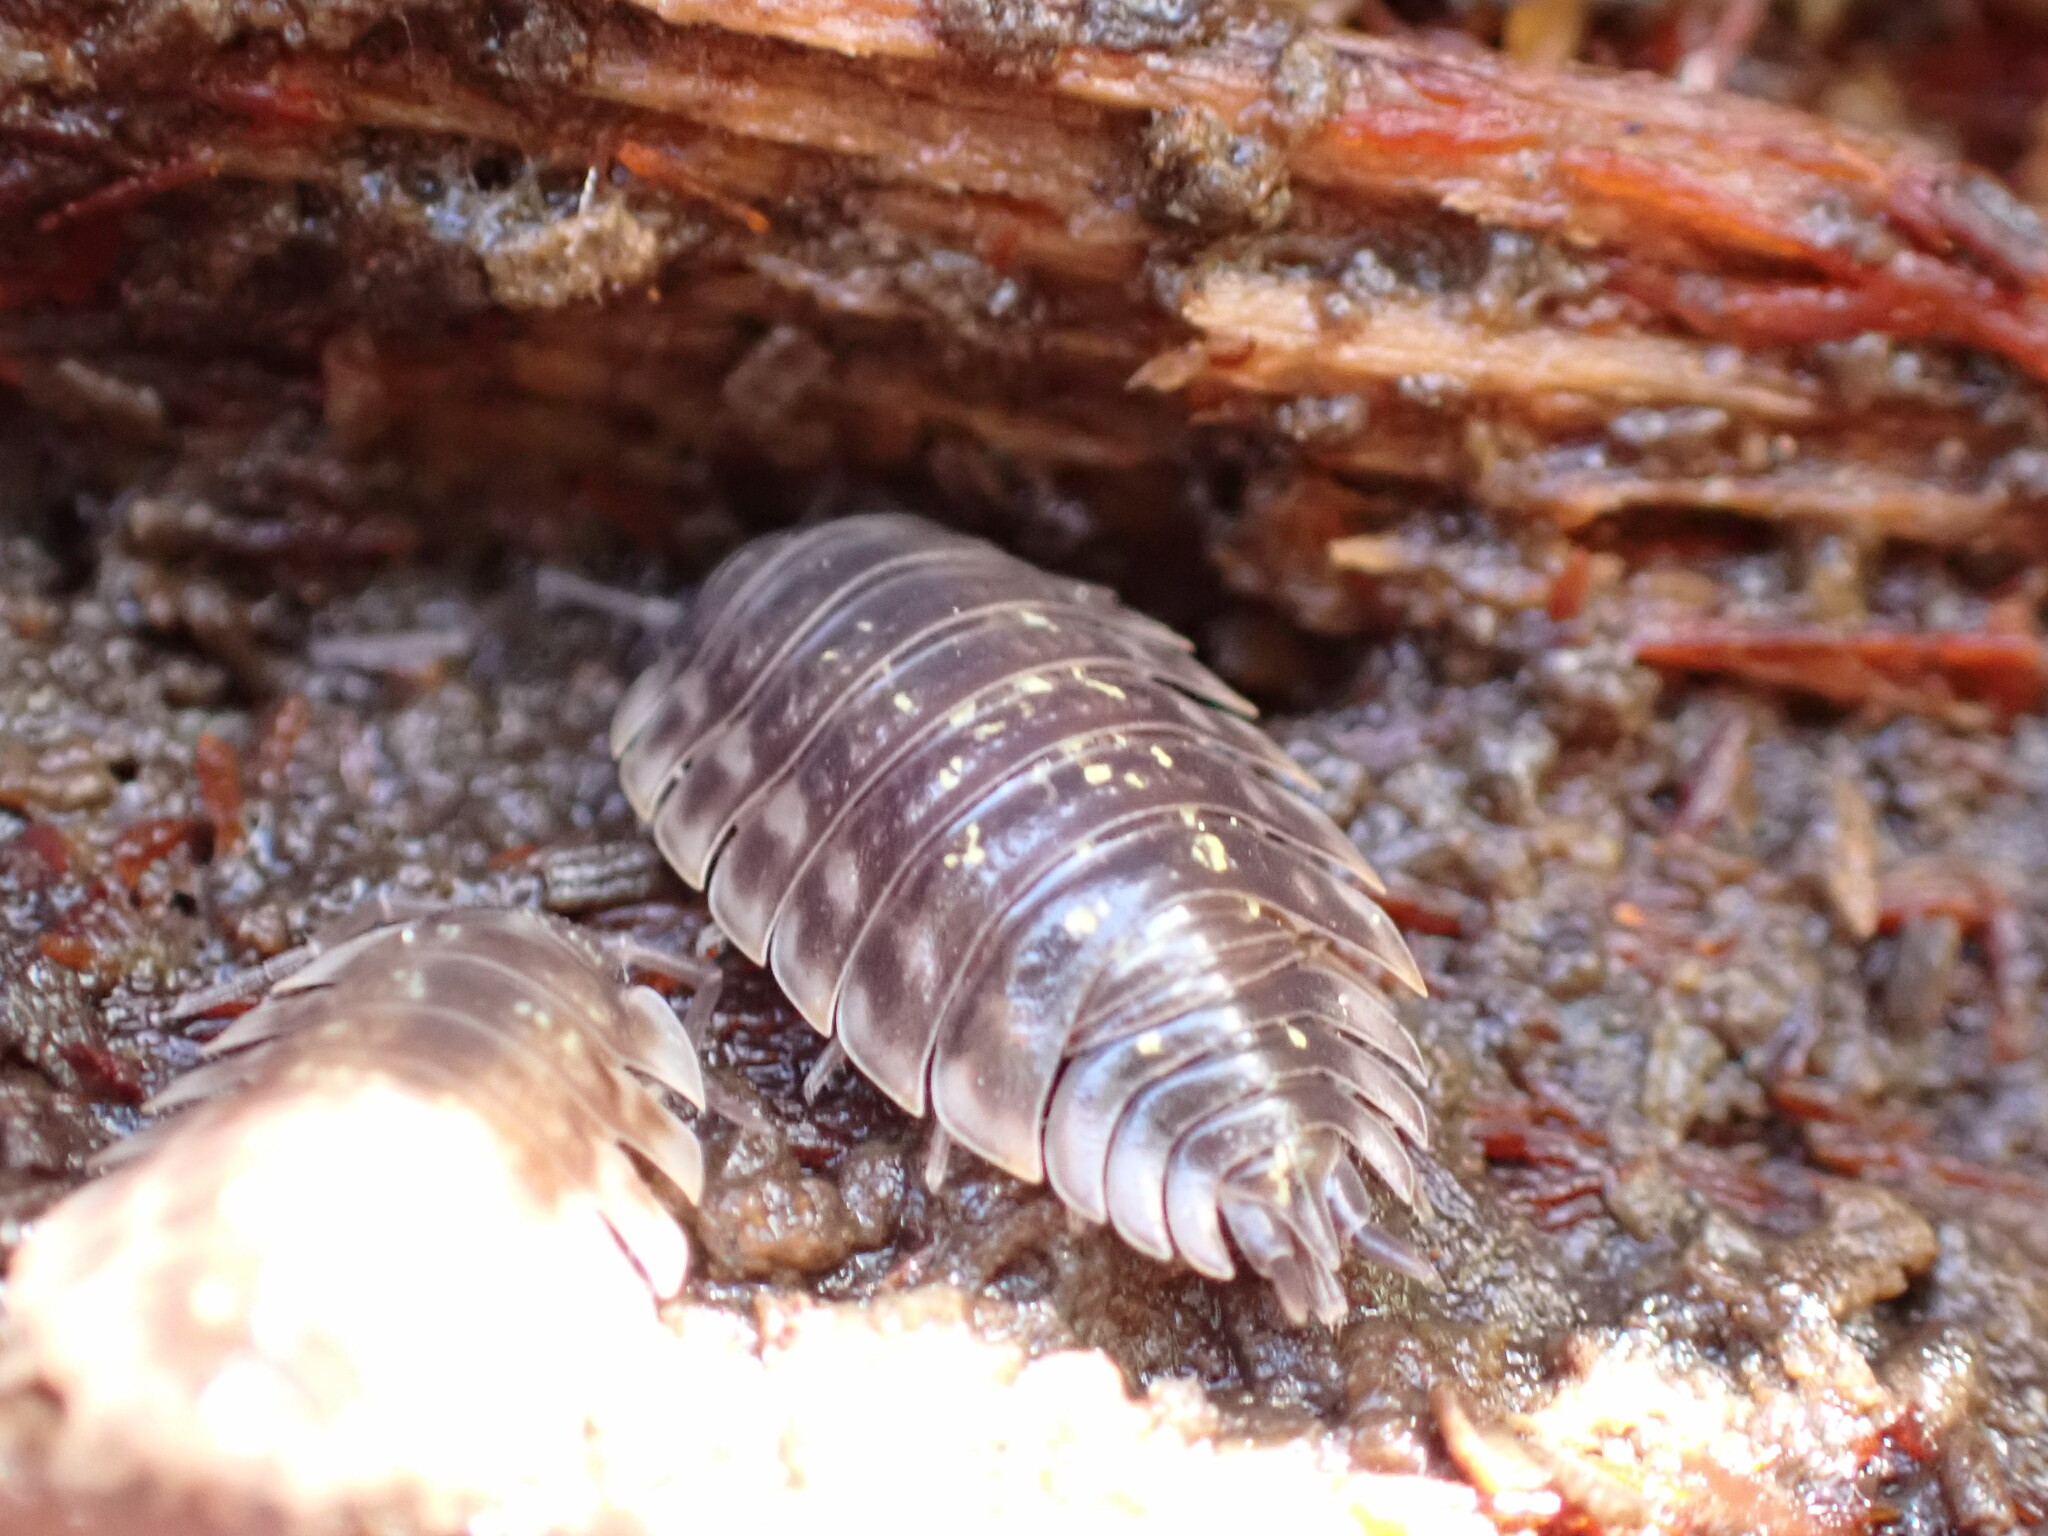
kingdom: Animalia
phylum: Arthropoda
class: Malacostraca
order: Isopoda
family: Oniscidae
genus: Oniscus
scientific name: Oniscus asellus
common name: Common shiny woodlouse
